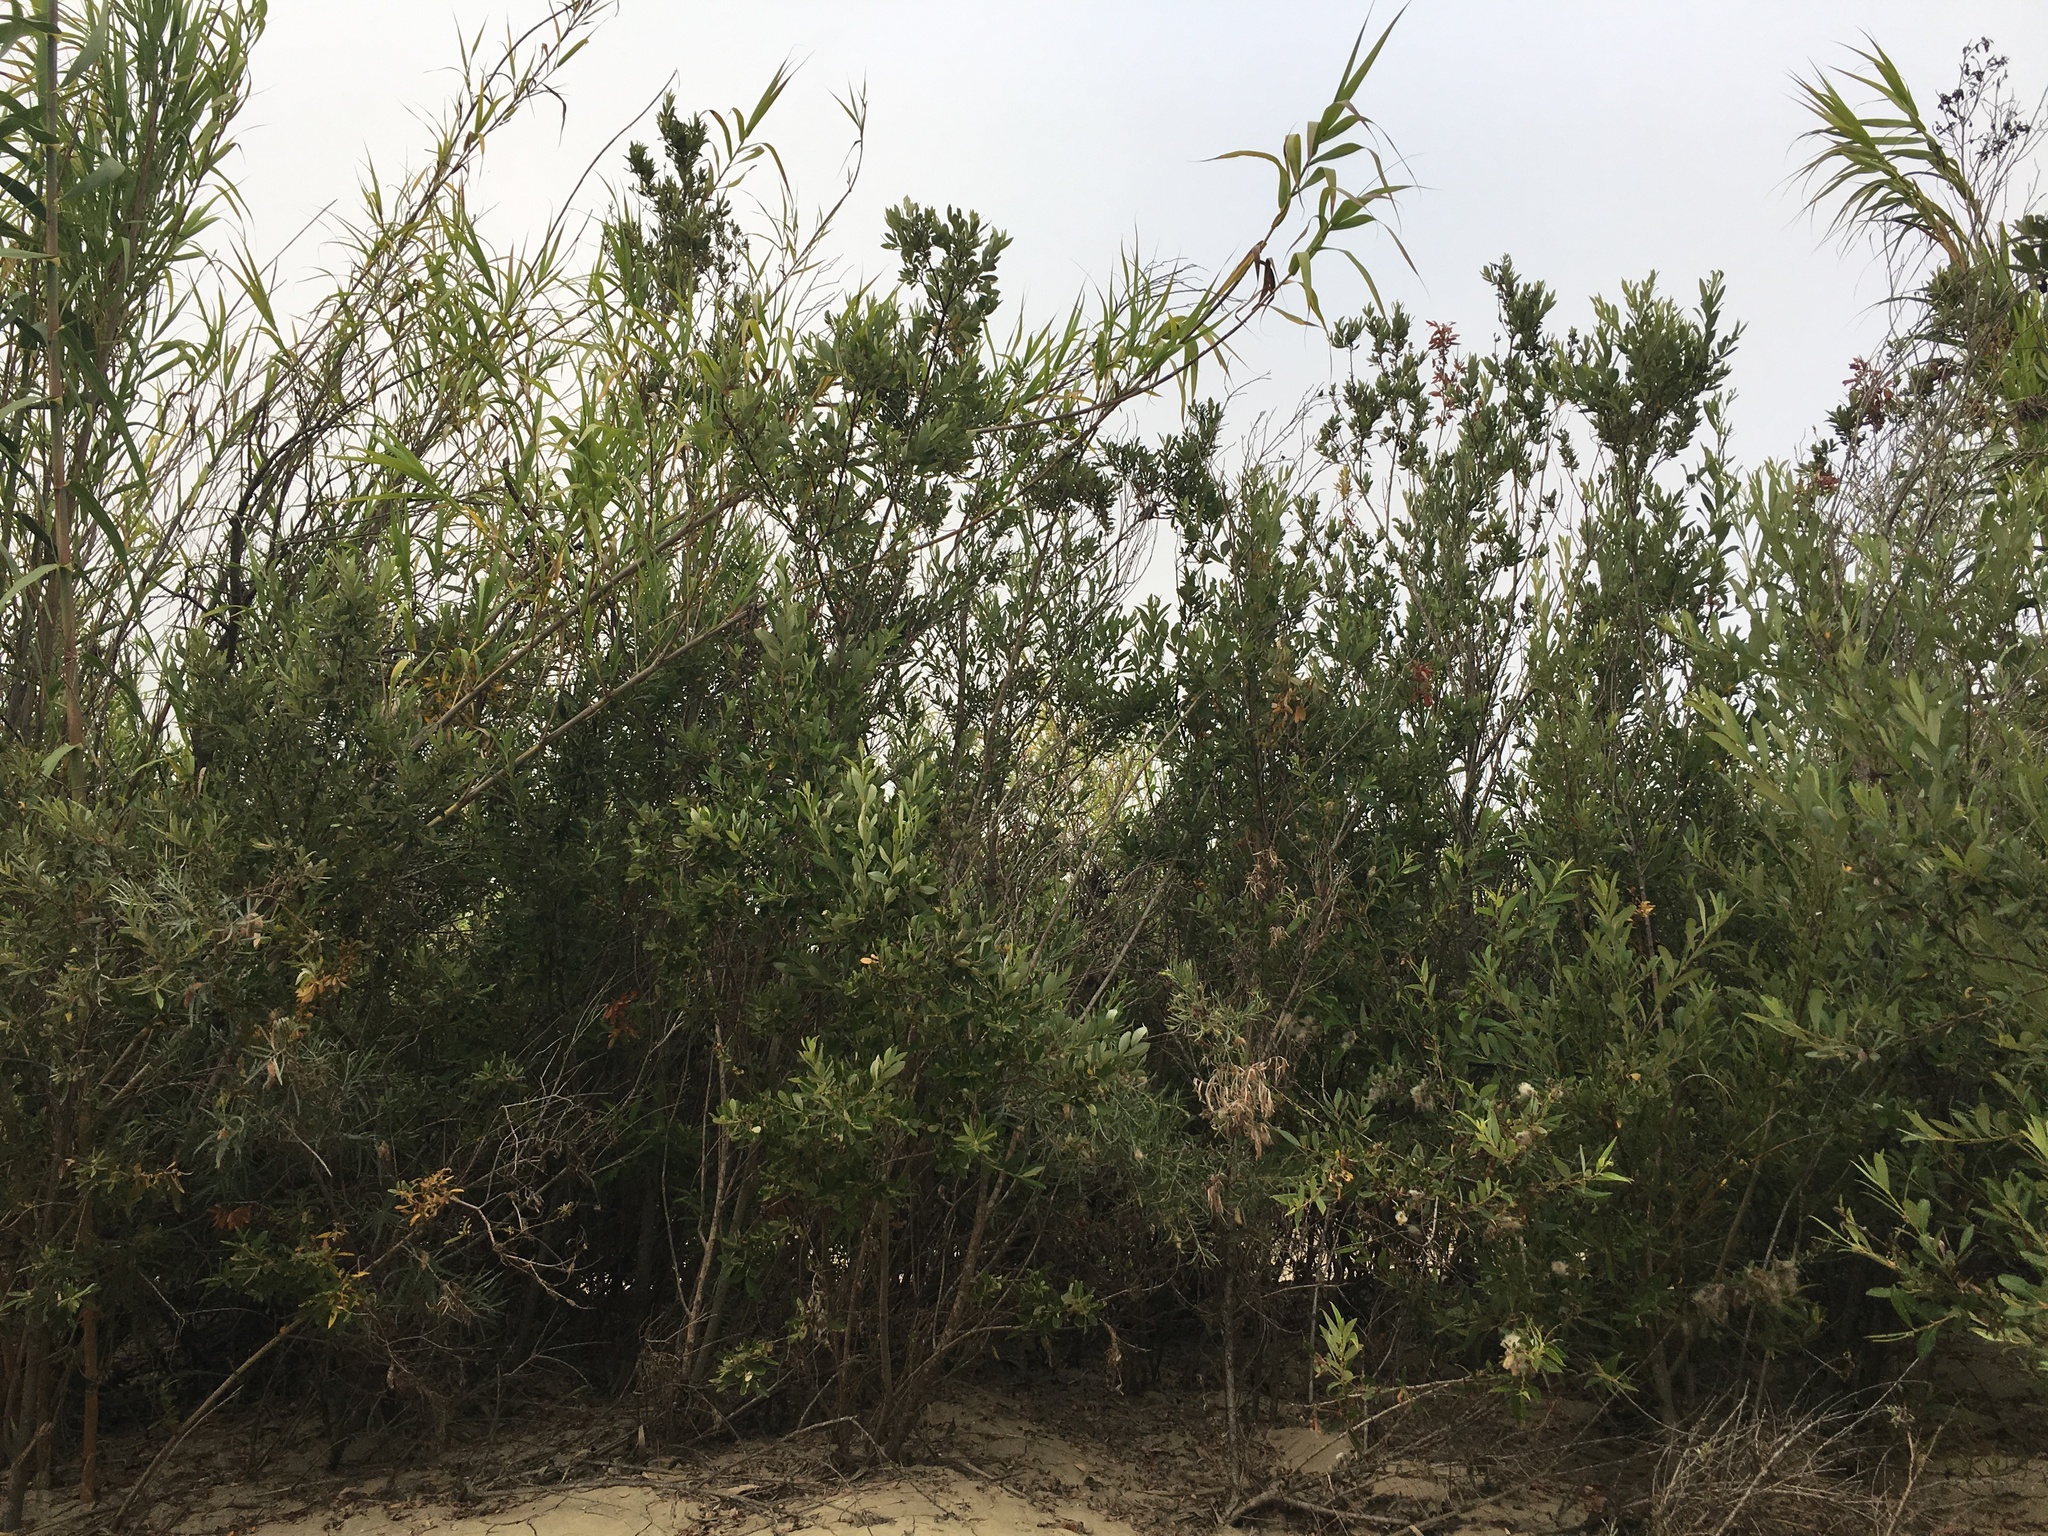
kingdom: Plantae
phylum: Tracheophyta
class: Liliopsida
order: Poales
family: Poaceae
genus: Arundo
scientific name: Arundo donax
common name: Giant reed
